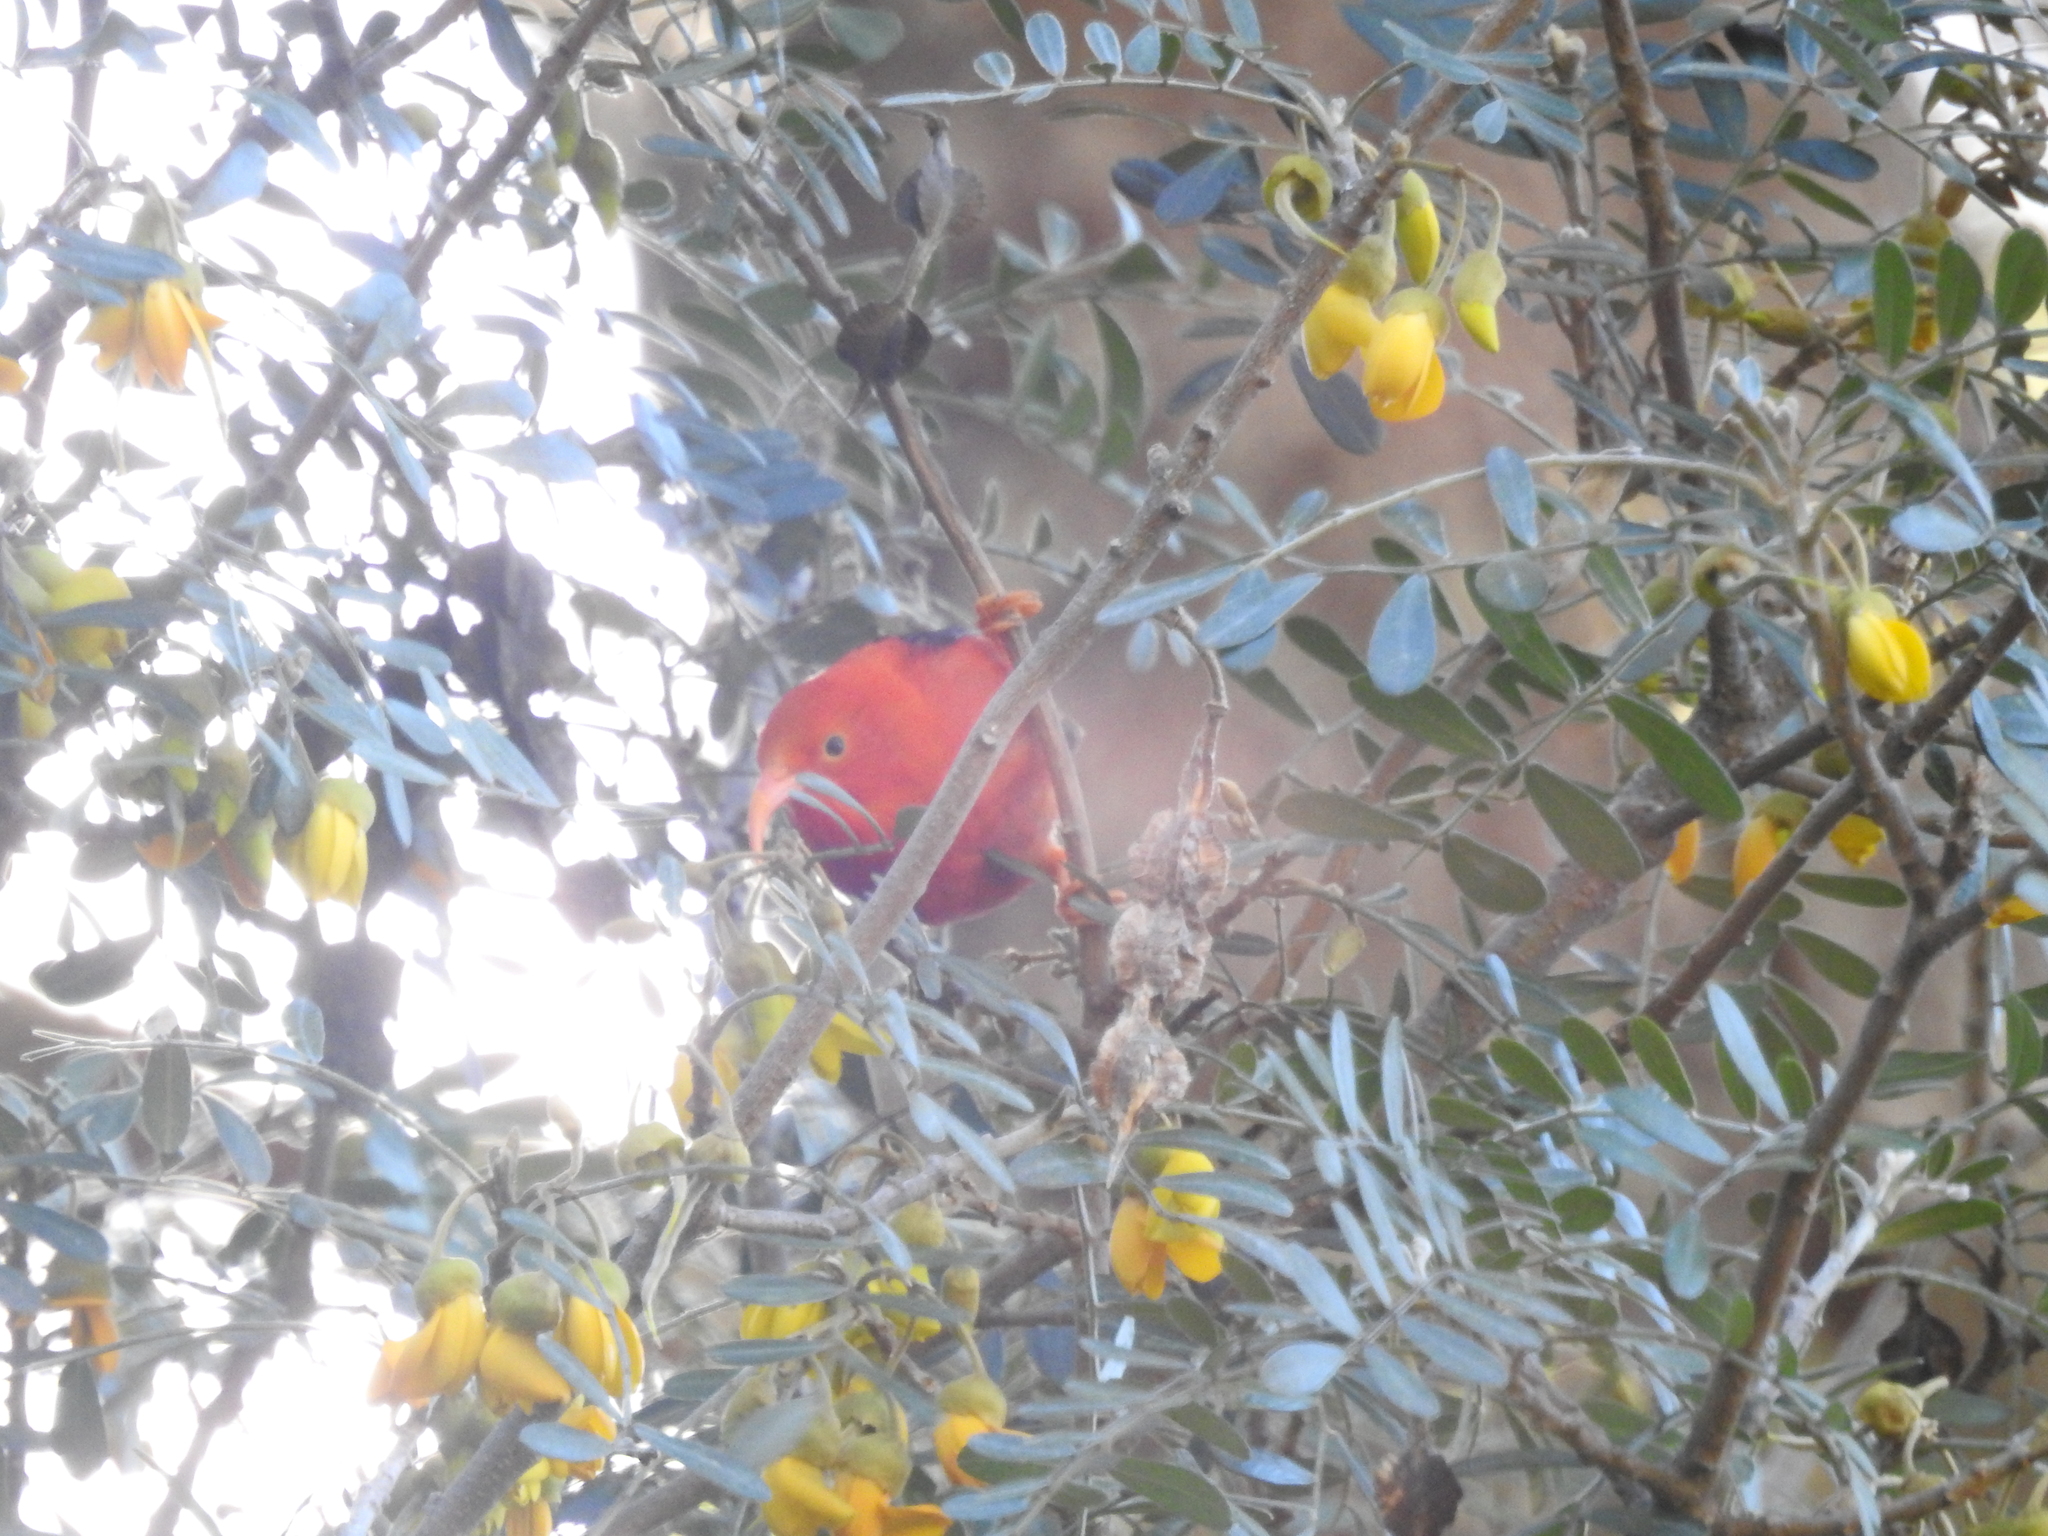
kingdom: Animalia
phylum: Chordata
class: Aves
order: Passeriformes
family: Fringillidae
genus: Vestiaria
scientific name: Vestiaria coccinea
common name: Iiwi
